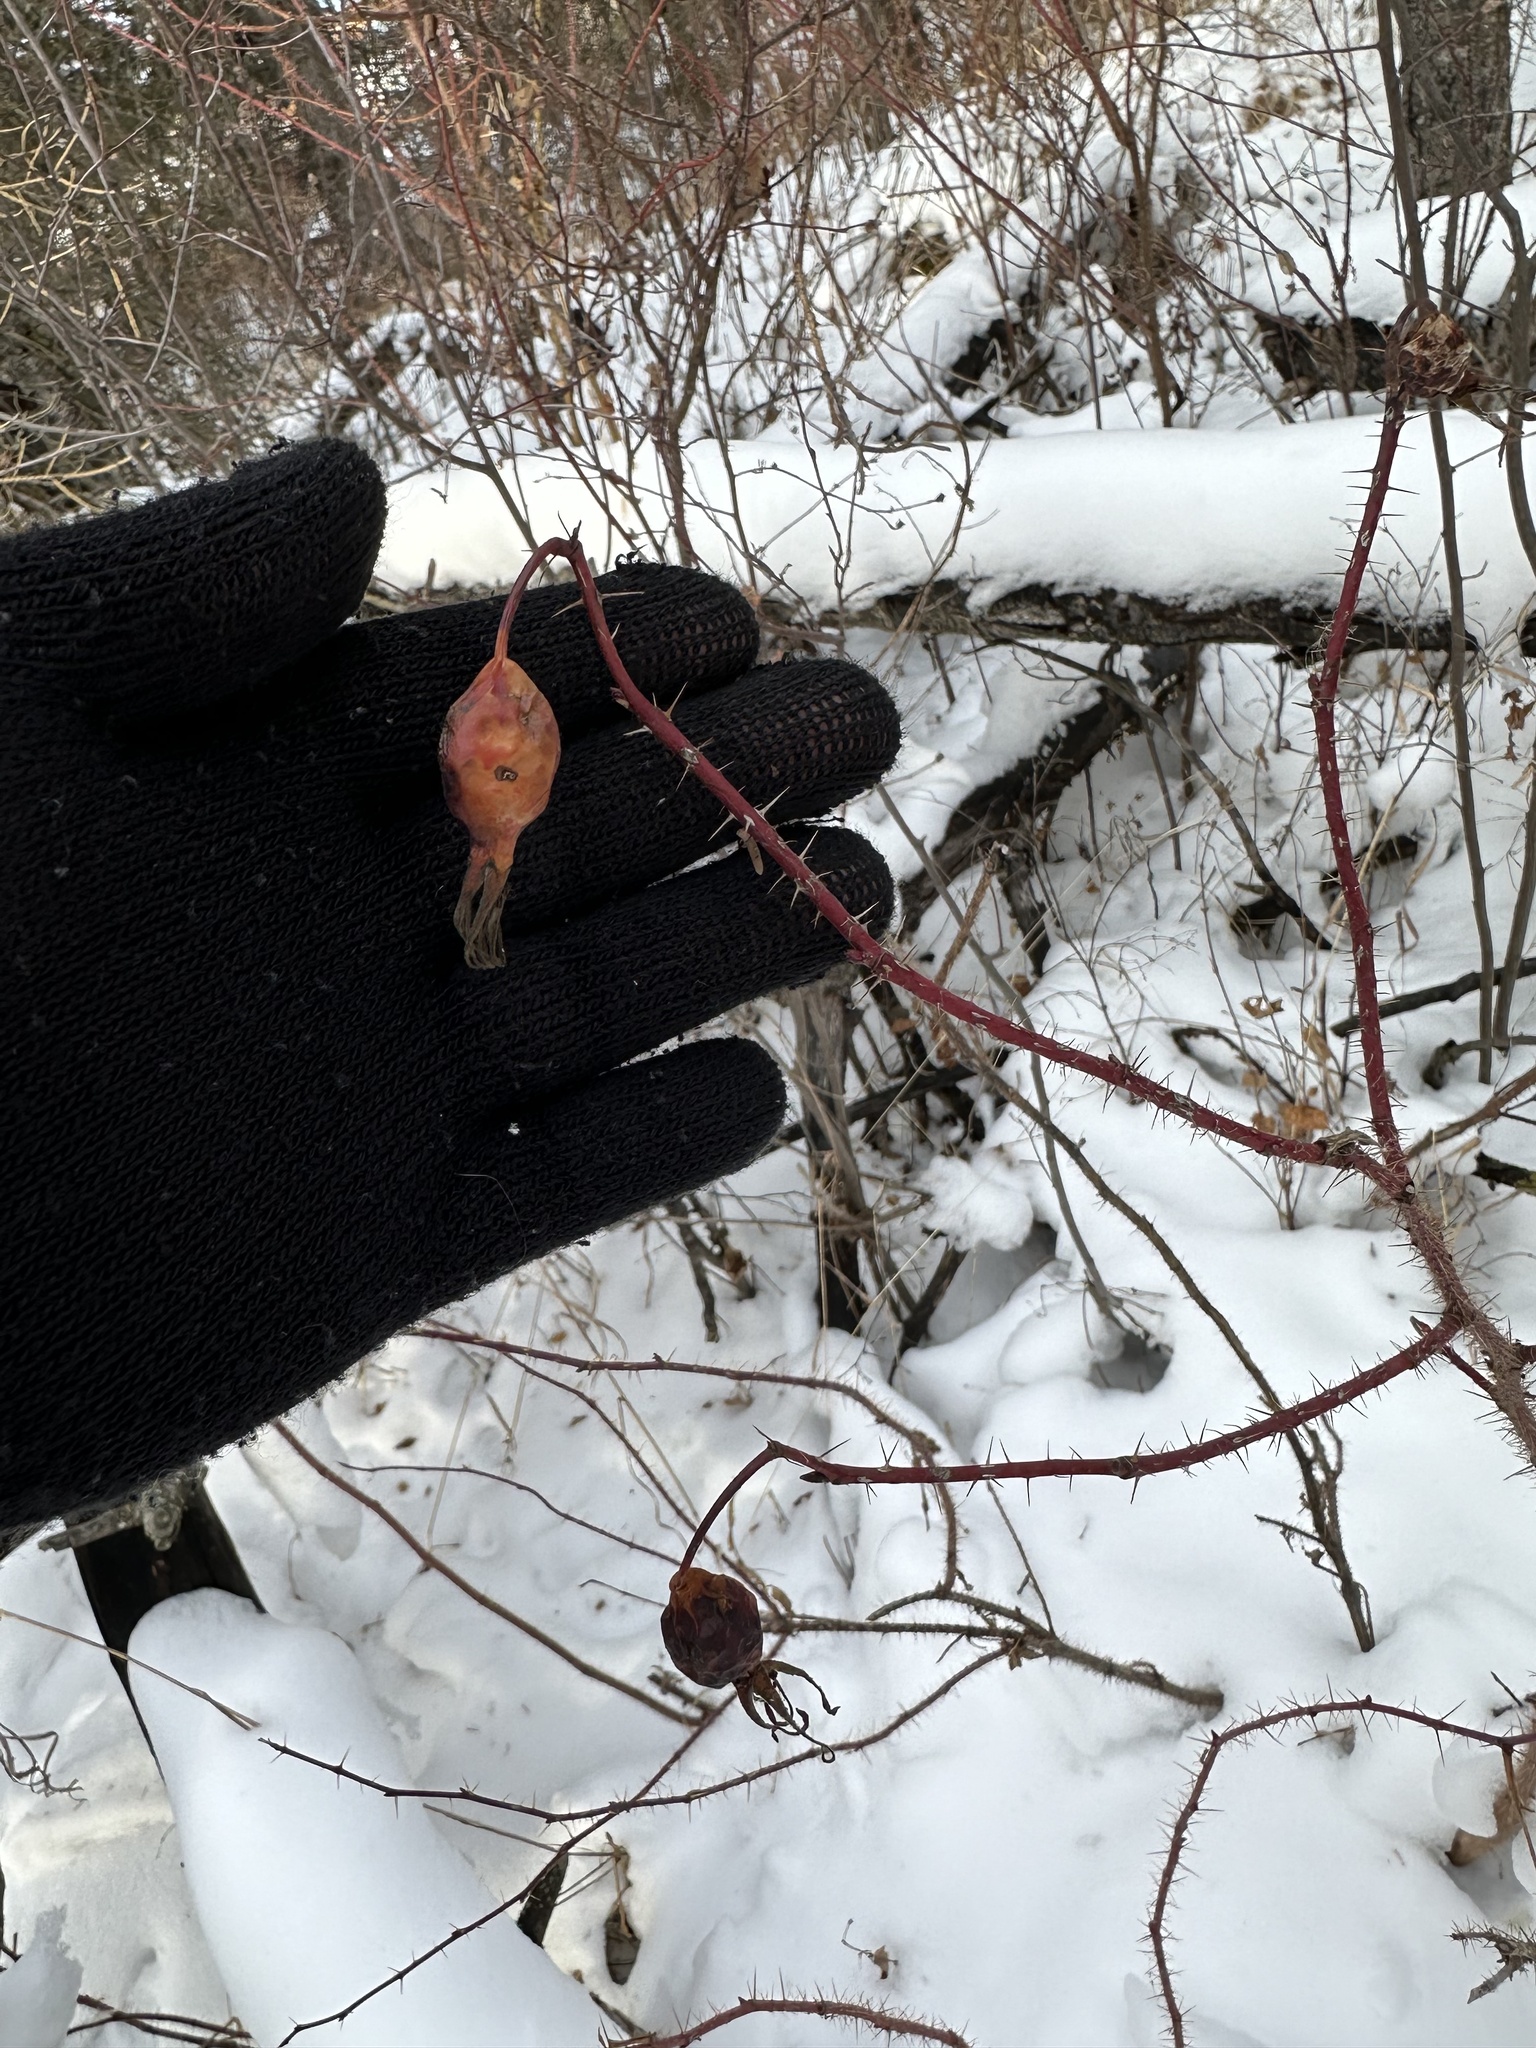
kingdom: Plantae
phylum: Tracheophyta
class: Magnoliopsida
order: Rosales
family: Rosaceae
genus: Rosa
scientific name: Rosa acicularis
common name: Prickly rose
